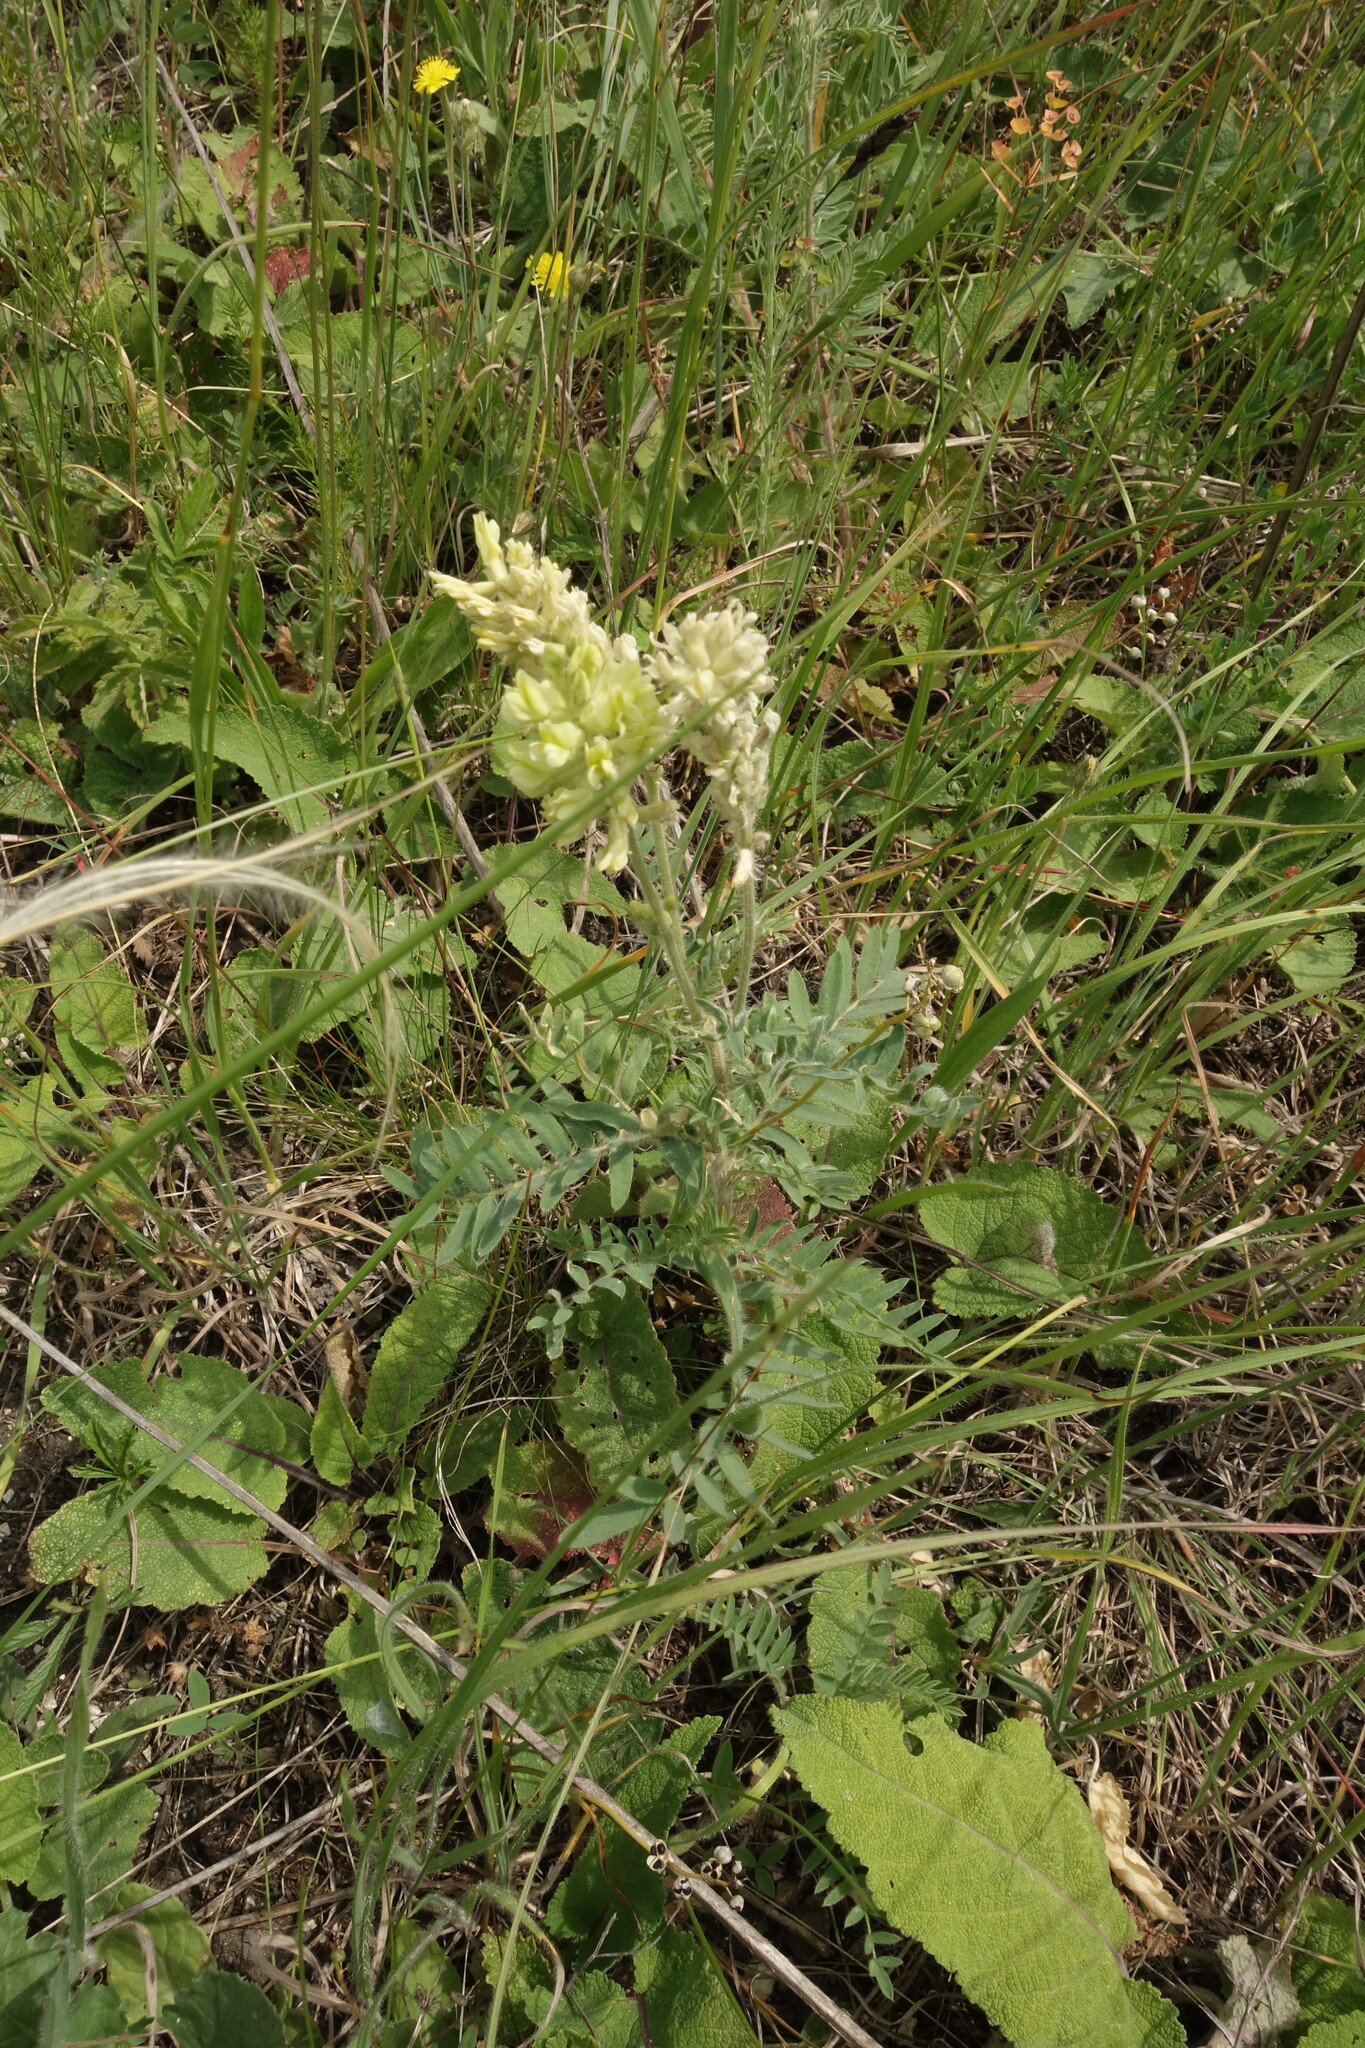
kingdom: Plantae
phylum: Tracheophyta
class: Magnoliopsida
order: Fabales
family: Fabaceae
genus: Oxytropis
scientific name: Oxytropis pilosa
